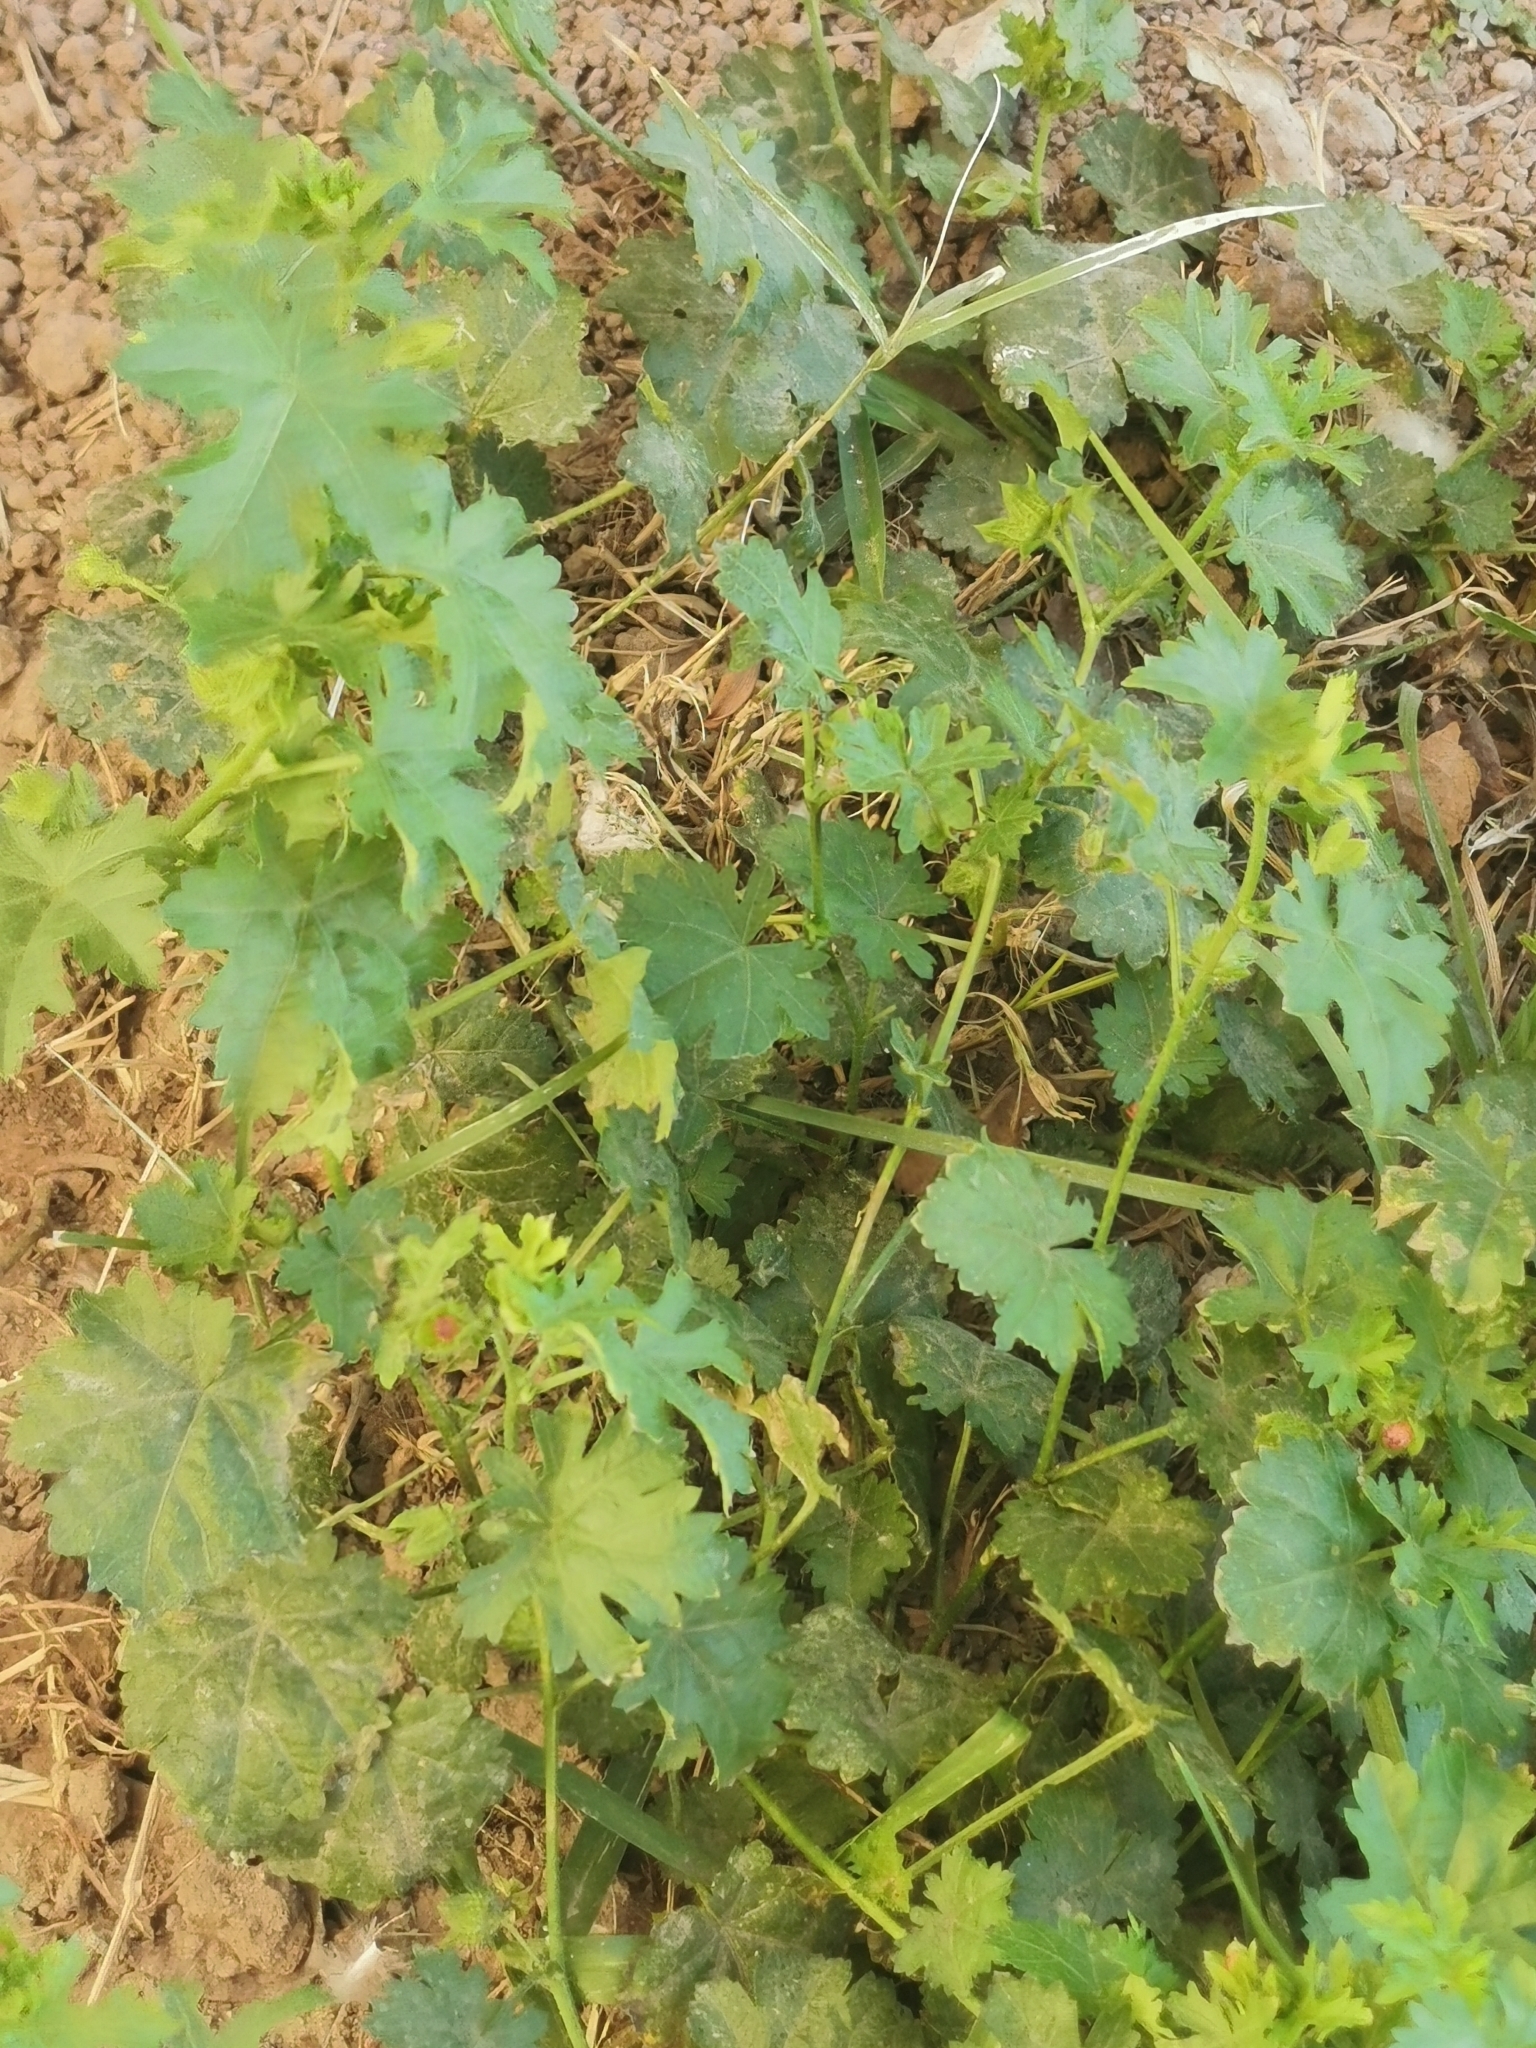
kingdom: Plantae
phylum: Tracheophyta
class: Magnoliopsida
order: Malvales
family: Malvaceae
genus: Modiola
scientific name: Modiola caroliniana
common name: Carolina bristlemallow
